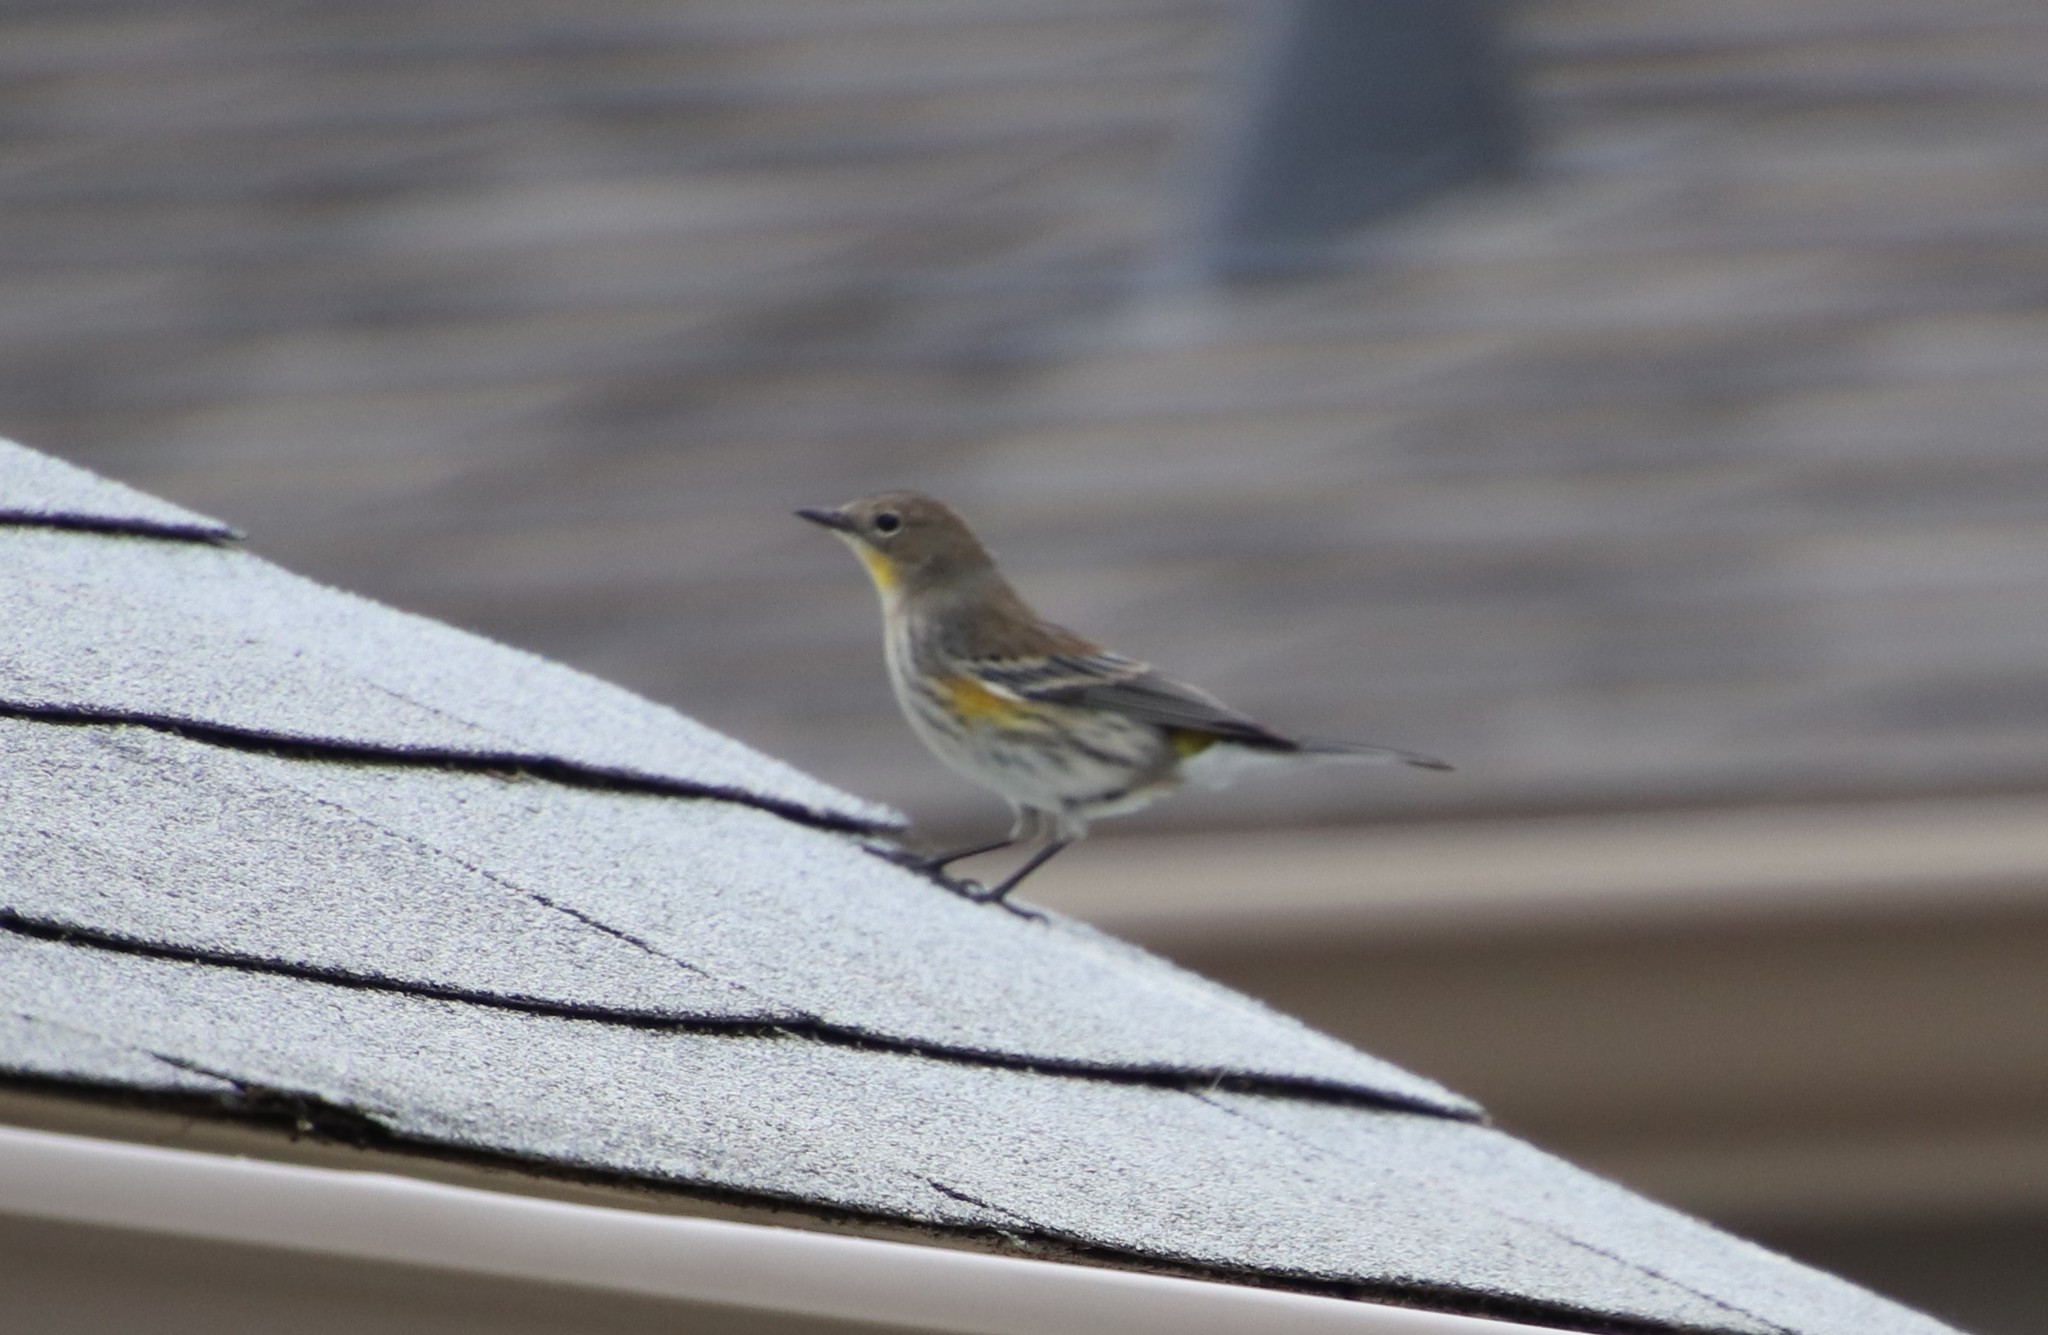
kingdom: Animalia
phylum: Chordata
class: Aves
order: Passeriformes
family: Parulidae
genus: Setophaga
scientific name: Setophaga auduboni
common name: Audubon's warbler
